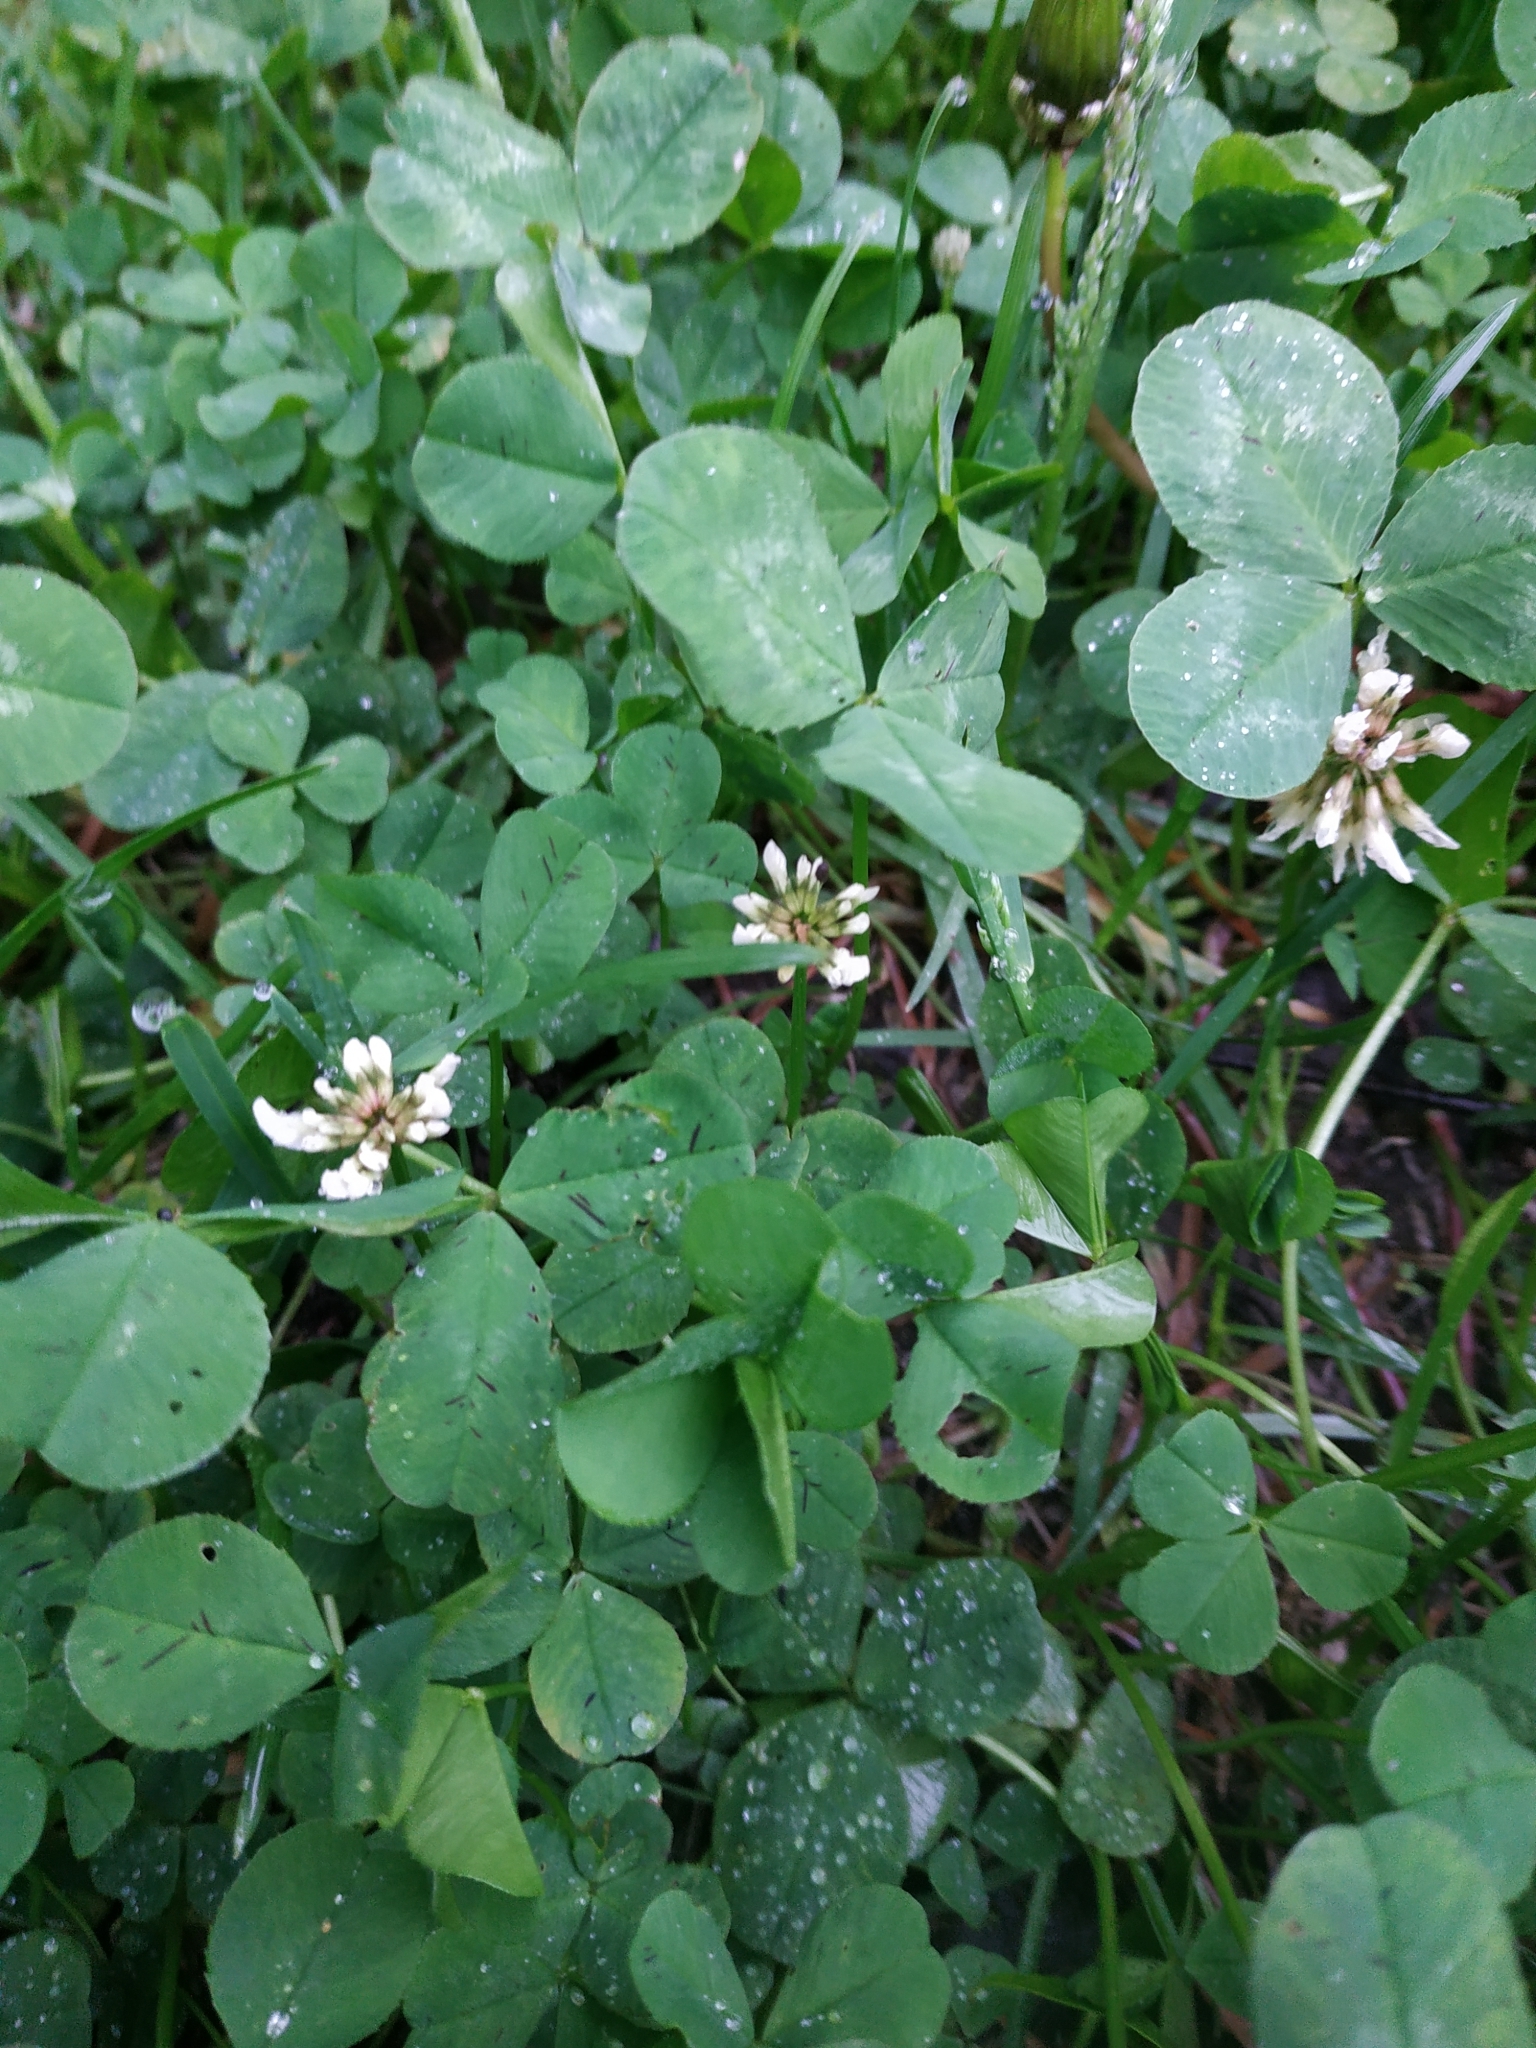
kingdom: Plantae
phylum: Tracheophyta
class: Magnoliopsida
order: Fabales
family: Fabaceae
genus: Trifolium
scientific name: Trifolium repens
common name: White clover
